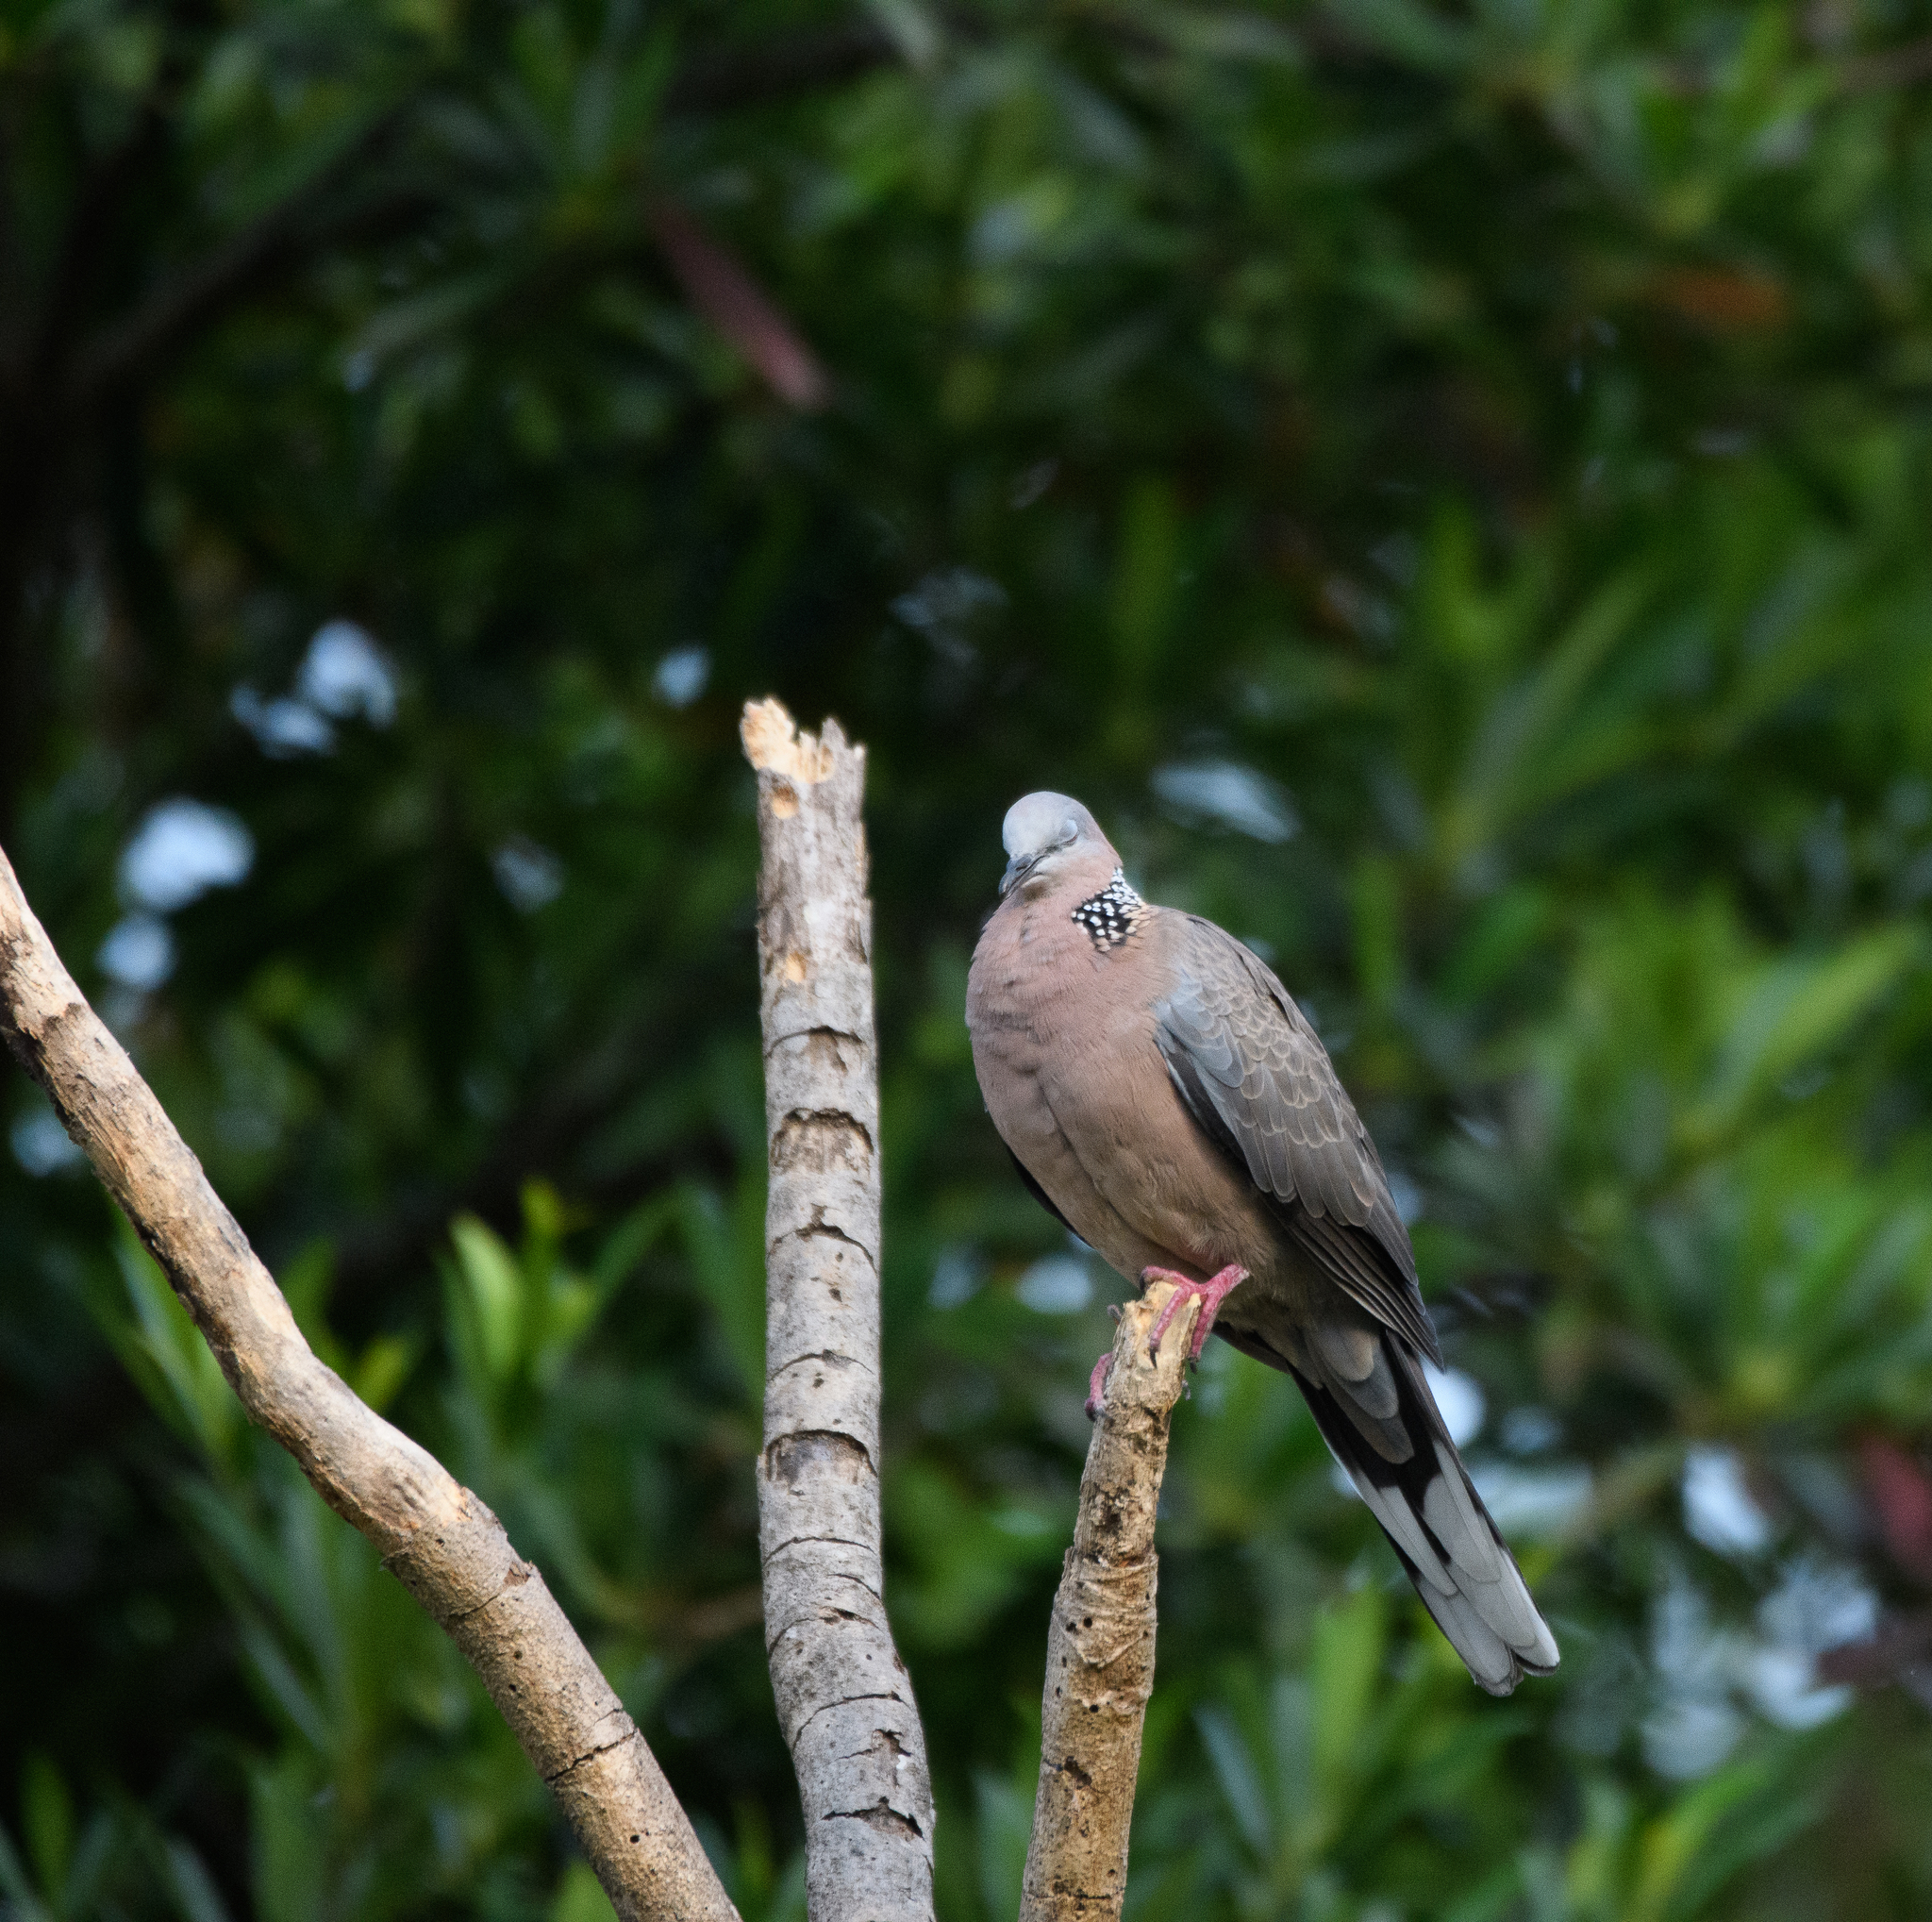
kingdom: Animalia
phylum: Chordata
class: Aves
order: Columbiformes
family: Columbidae
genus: Spilopelia
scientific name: Spilopelia chinensis
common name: Spotted dove
